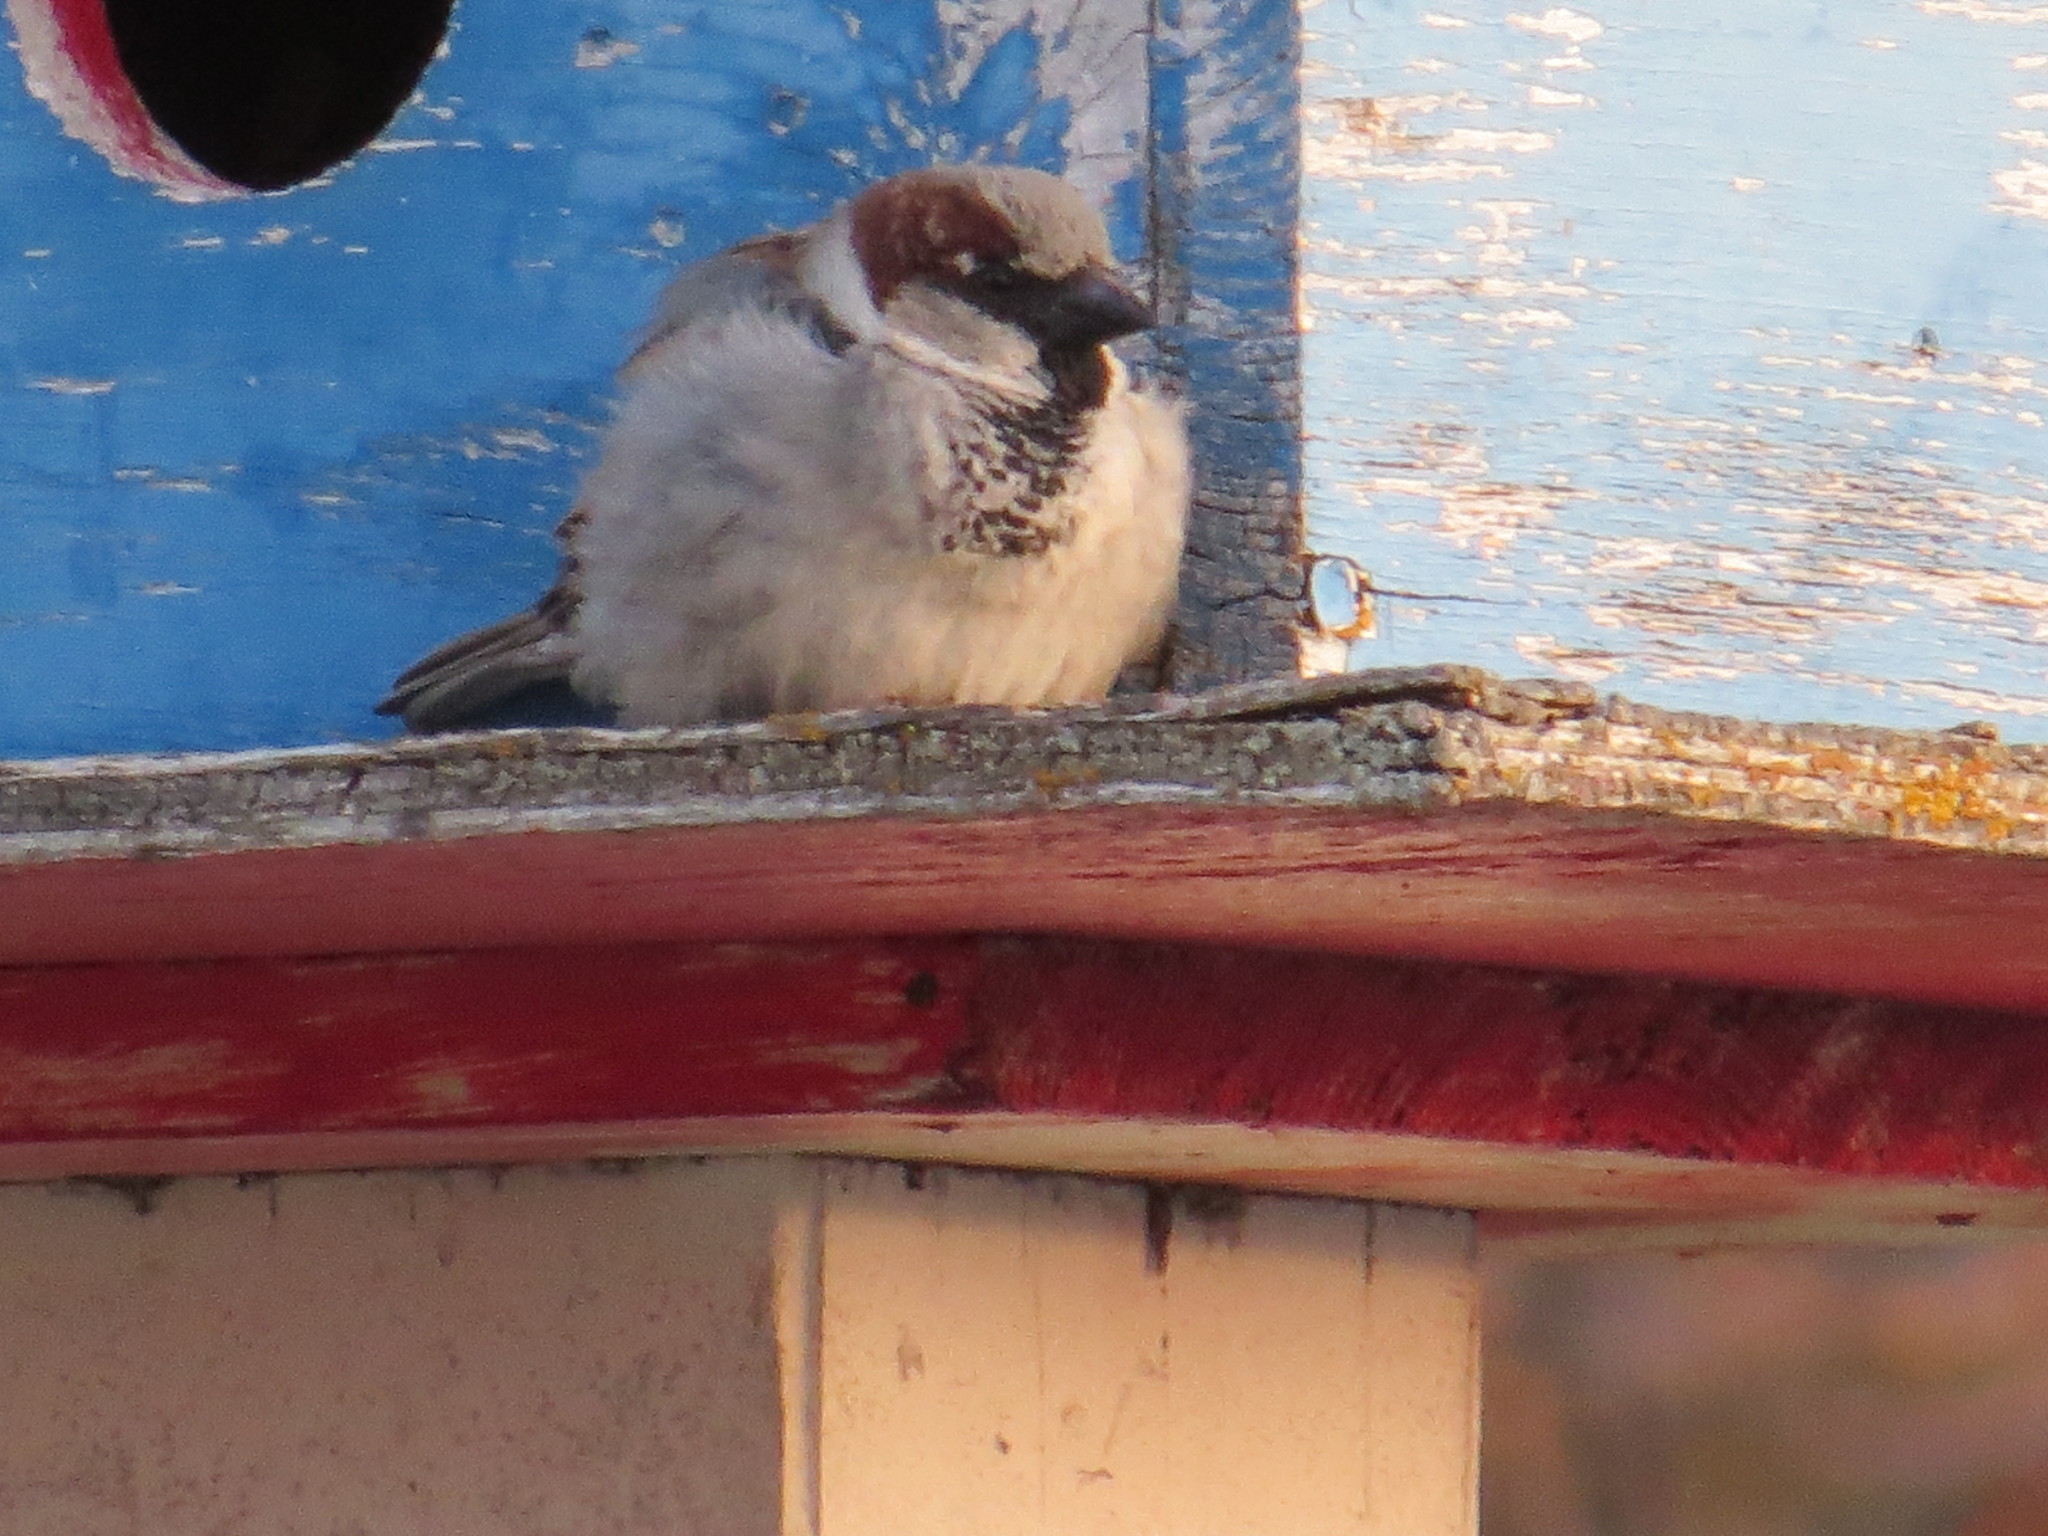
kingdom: Animalia
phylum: Chordata
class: Aves
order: Passeriformes
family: Passeridae
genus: Passer
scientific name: Passer domesticus
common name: House sparrow
